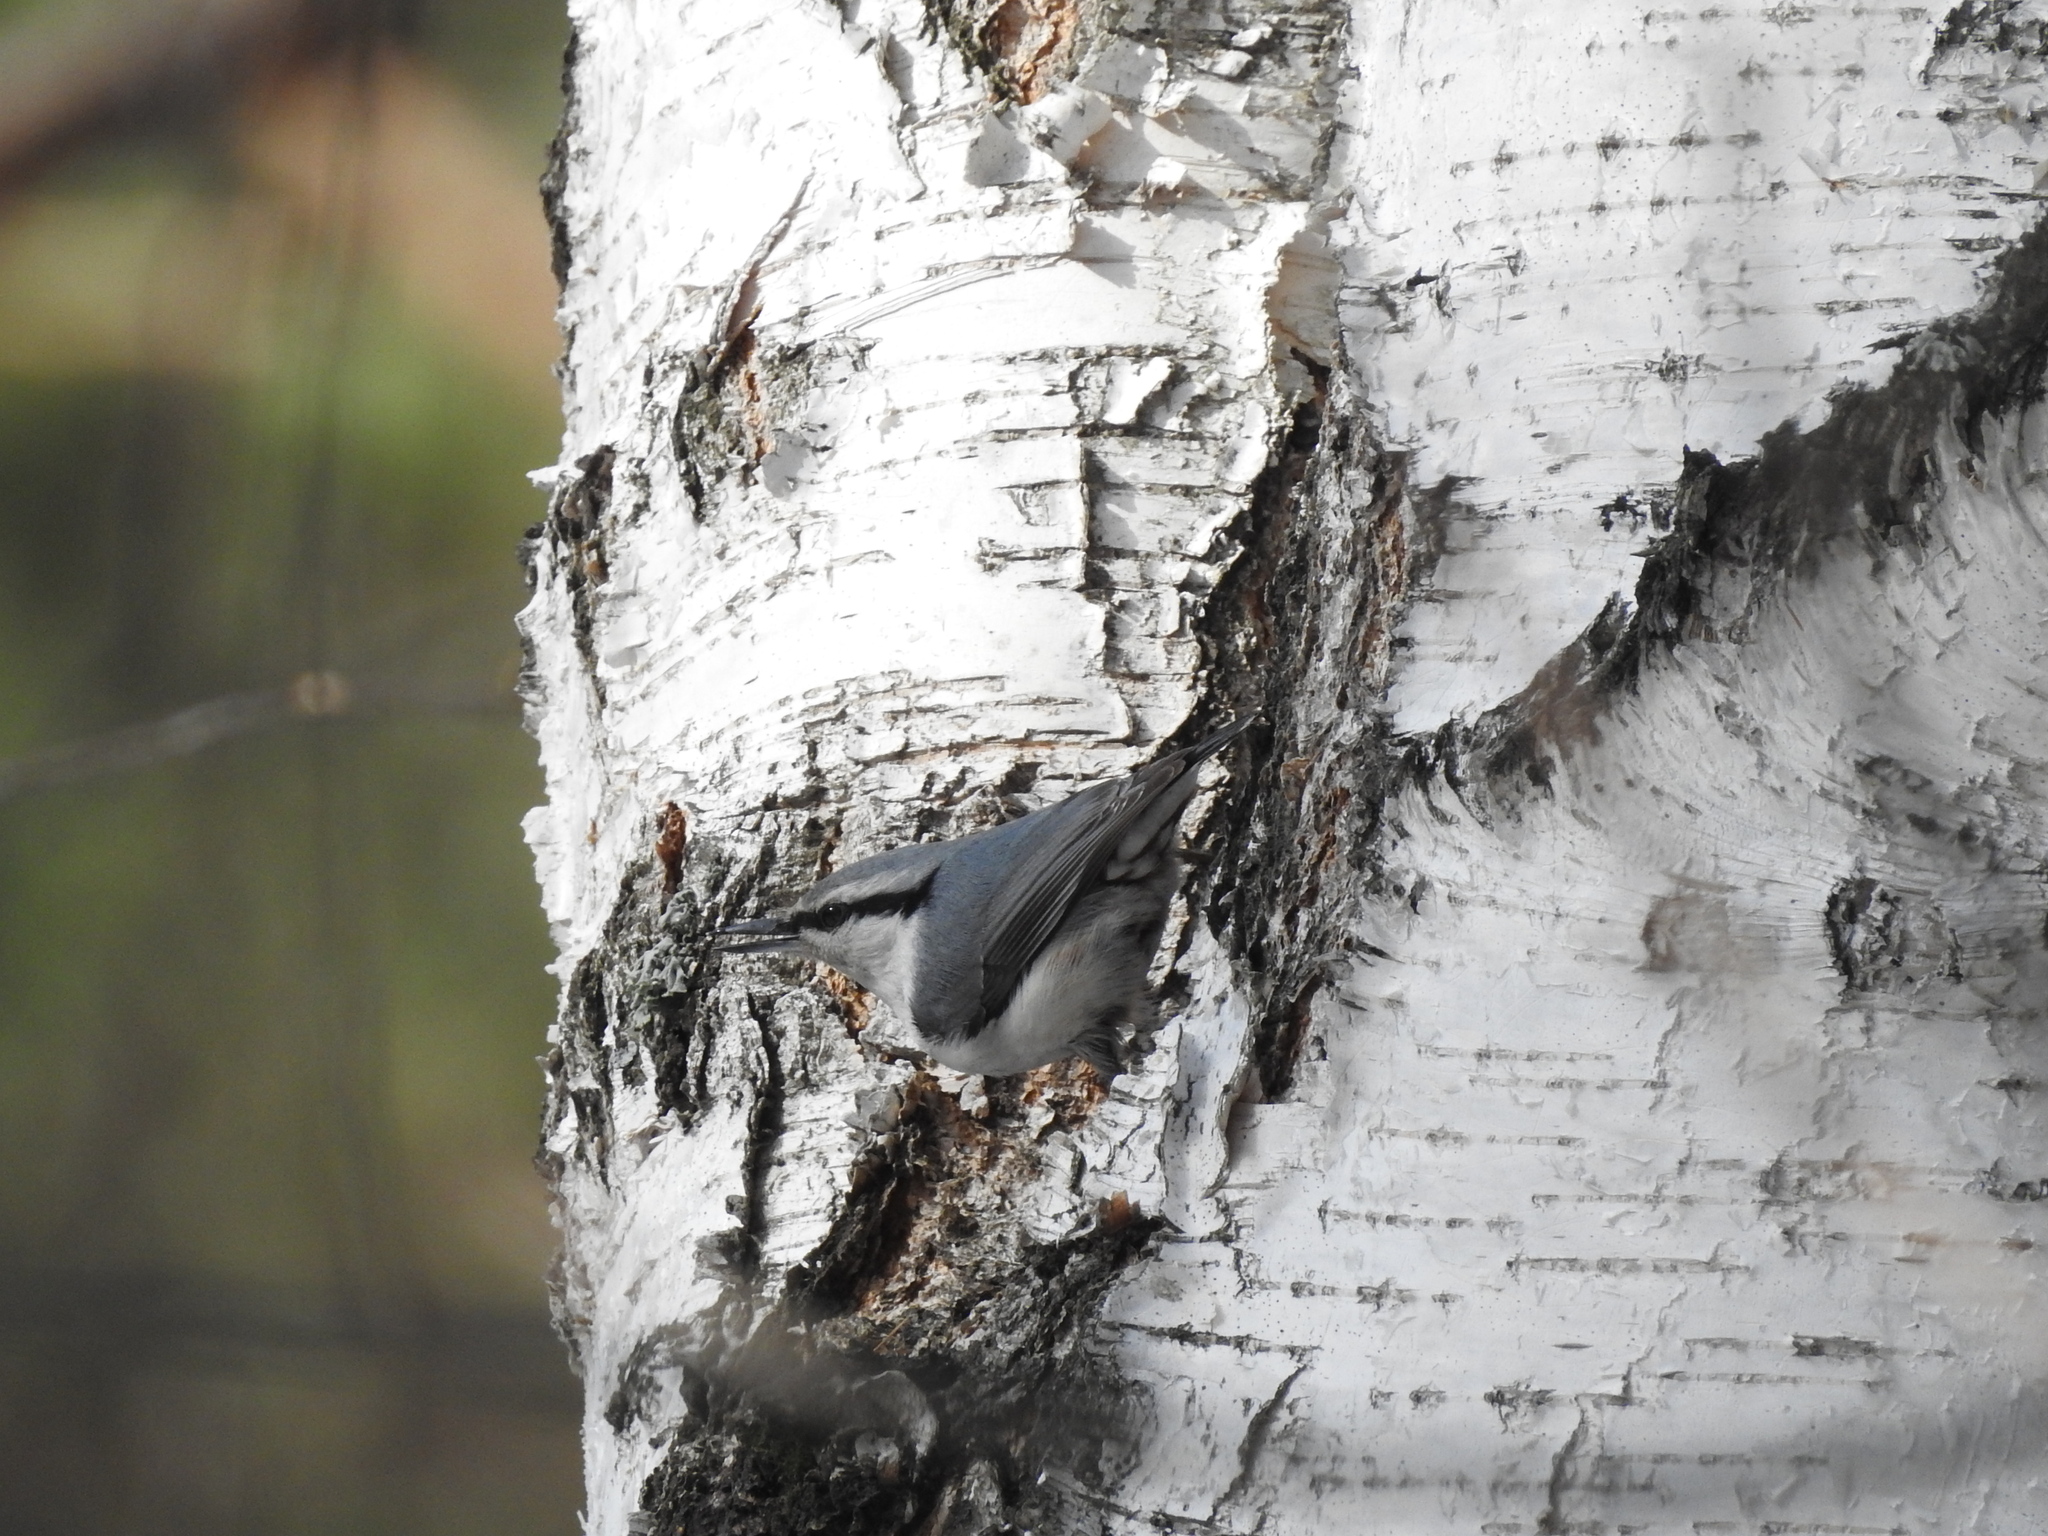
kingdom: Animalia
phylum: Chordata
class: Aves
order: Passeriformes
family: Sittidae
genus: Sitta
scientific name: Sitta europaea
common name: Eurasian nuthatch
